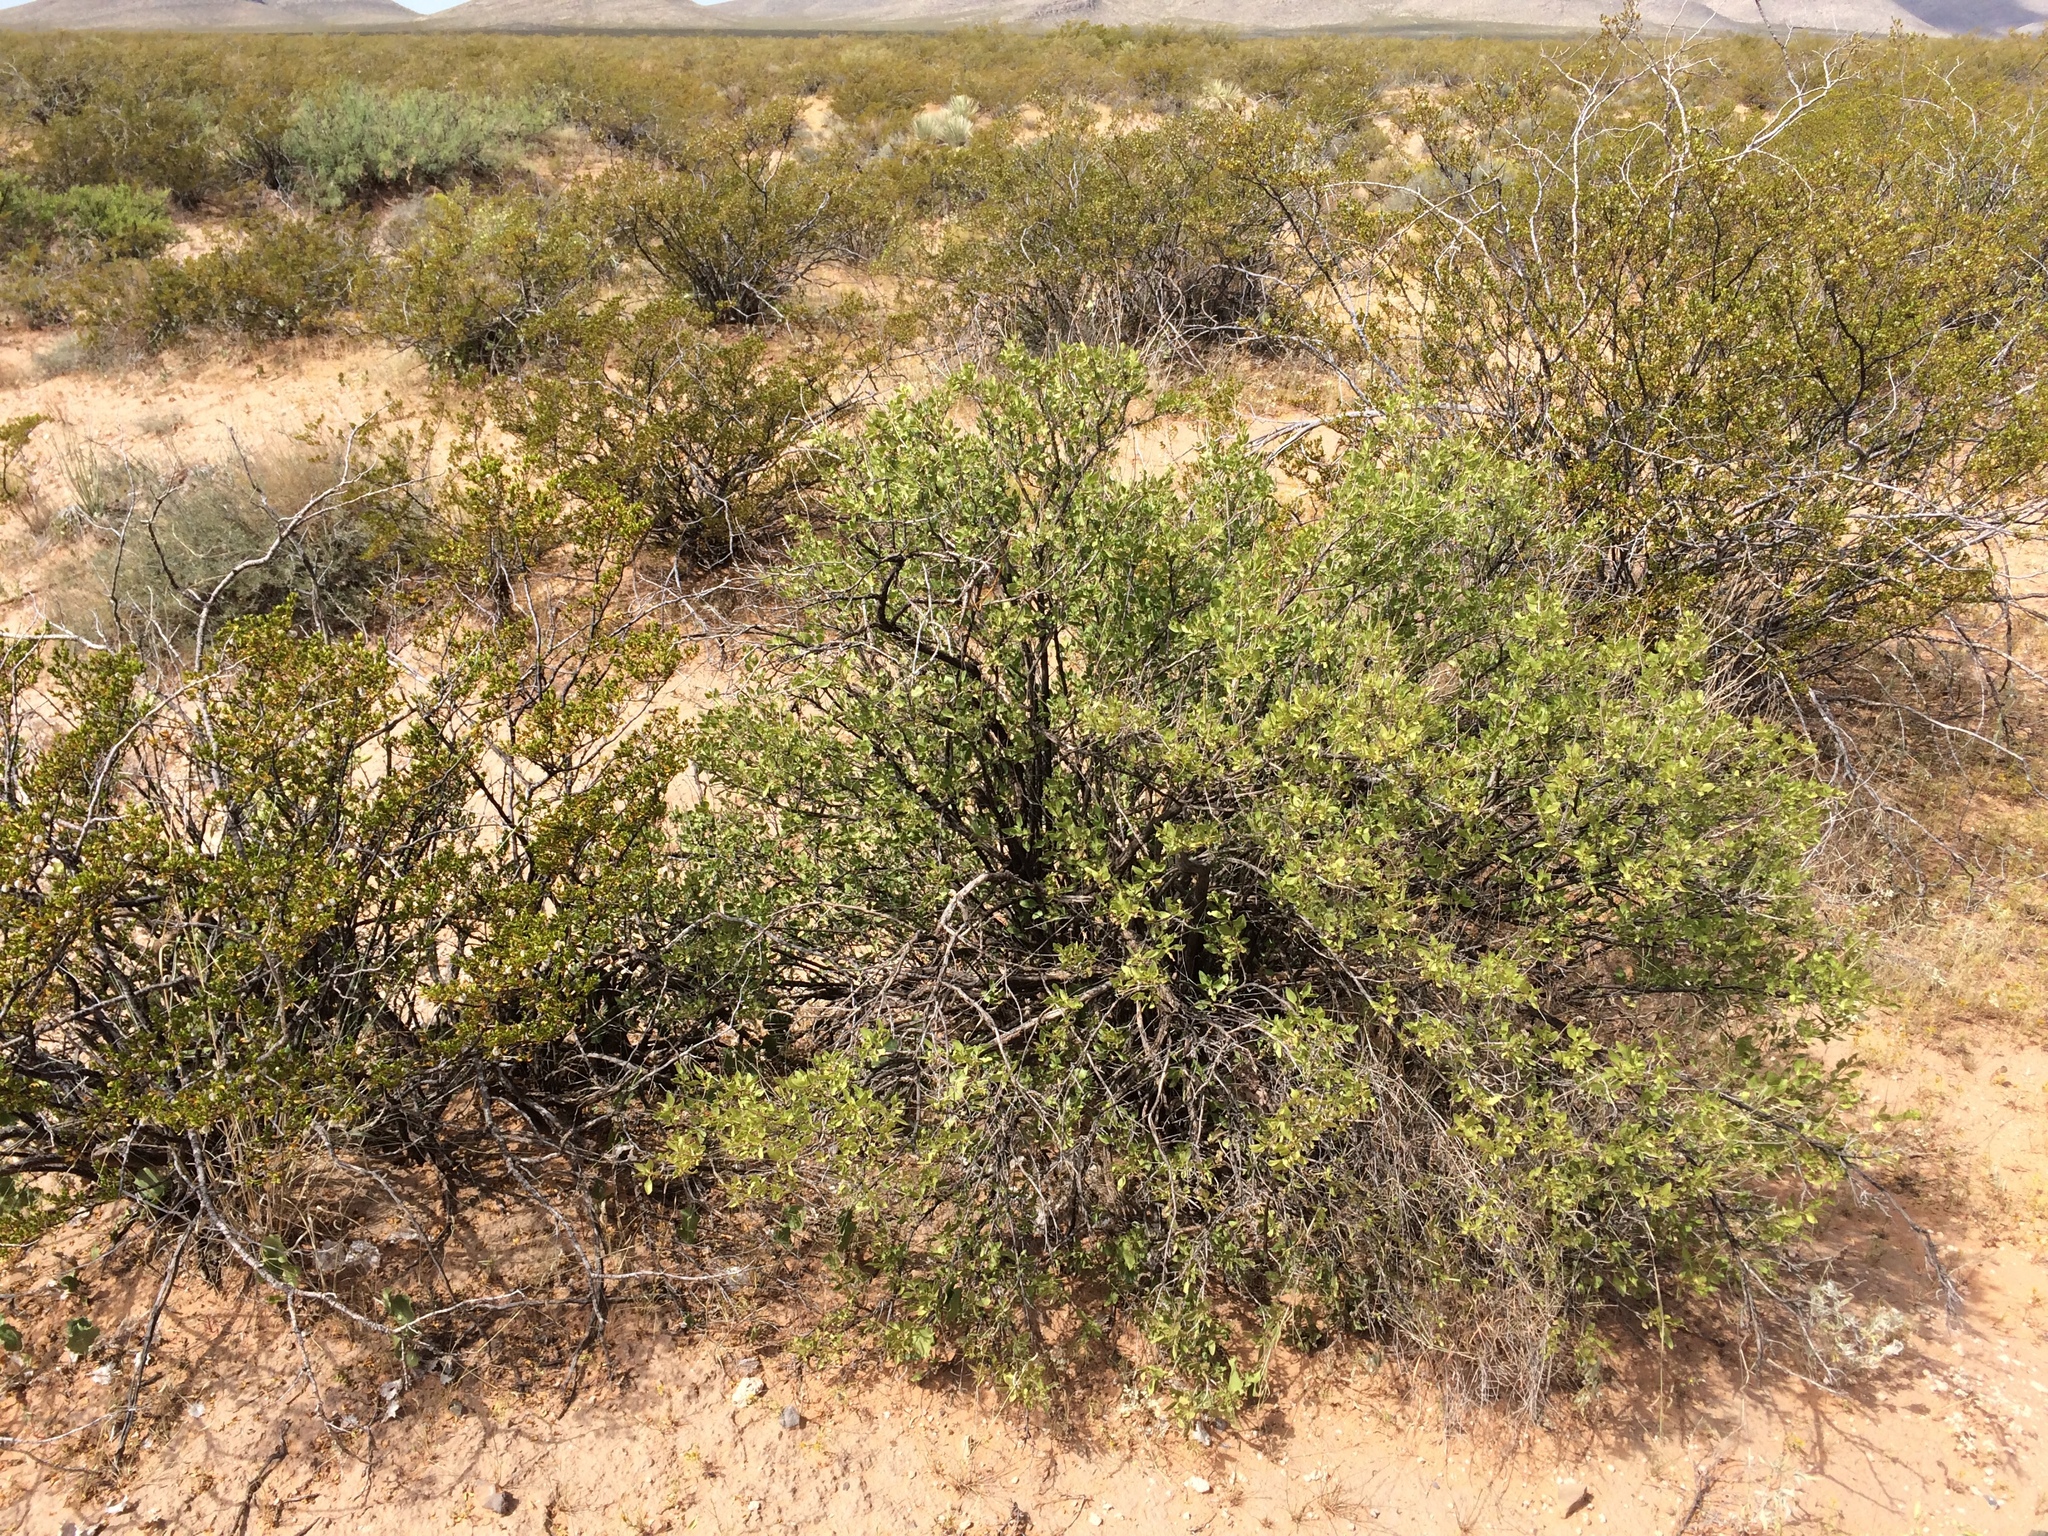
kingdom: Plantae
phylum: Tracheophyta
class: Magnoliopsida
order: Asterales
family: Asteraceae
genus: Flourensia
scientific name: Flourensia cernua
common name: Varnishbush
